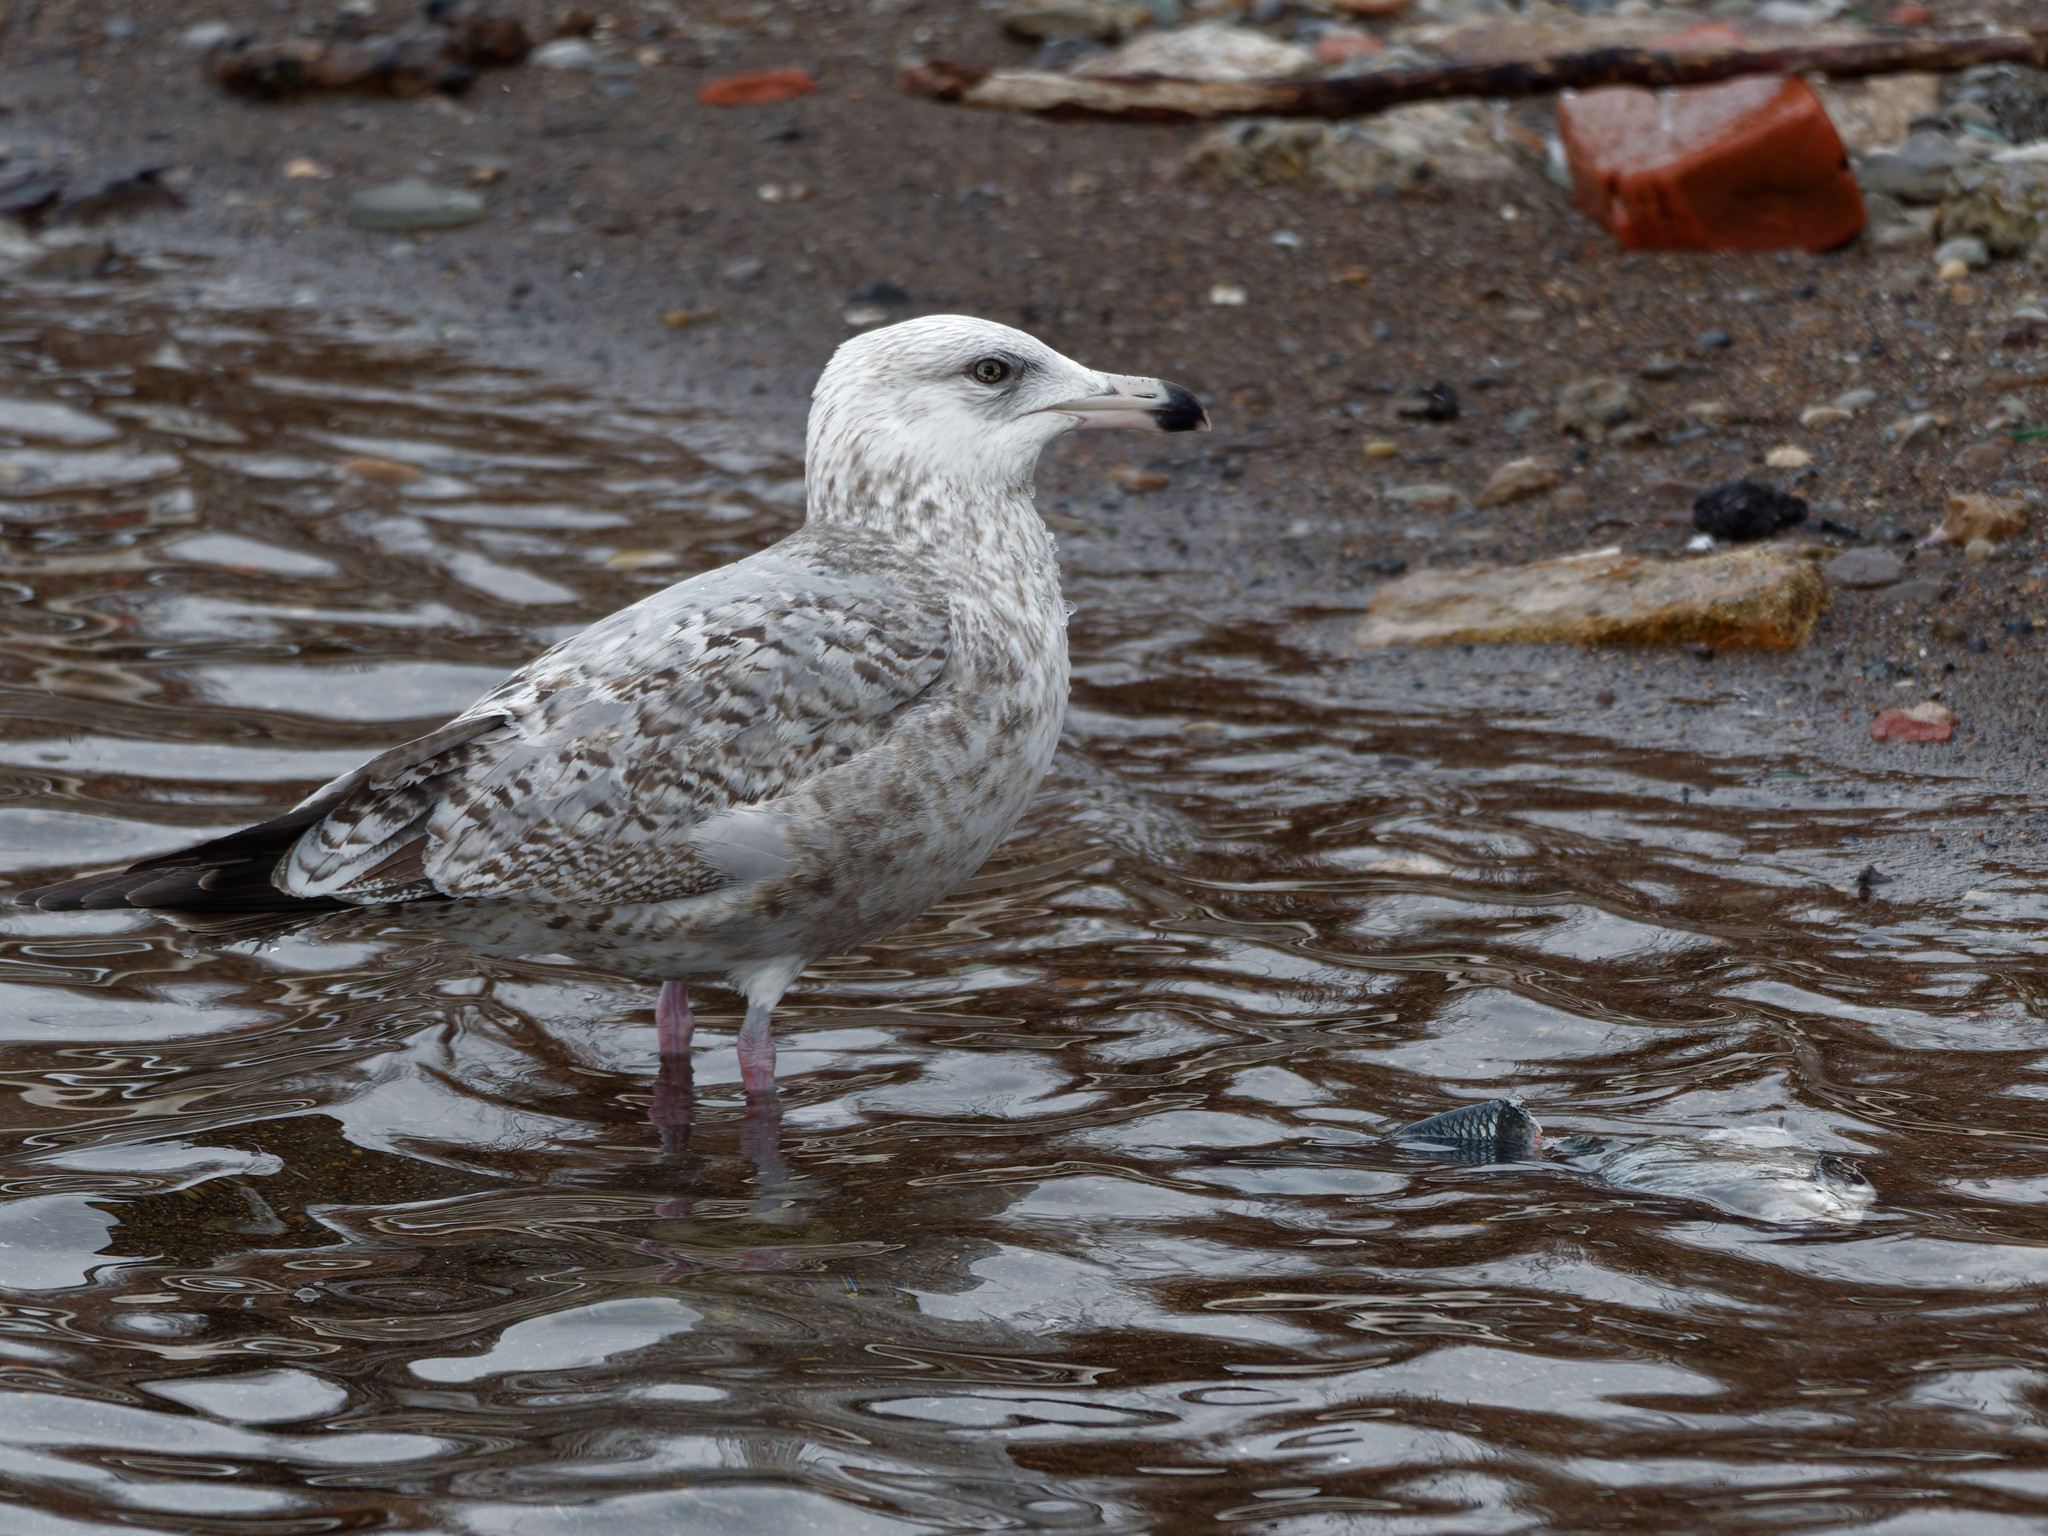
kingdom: Animalia
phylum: Chordata
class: Aves
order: Charadriiformes
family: Laridae
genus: Larus
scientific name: Larus argentatus
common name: Herring gull
